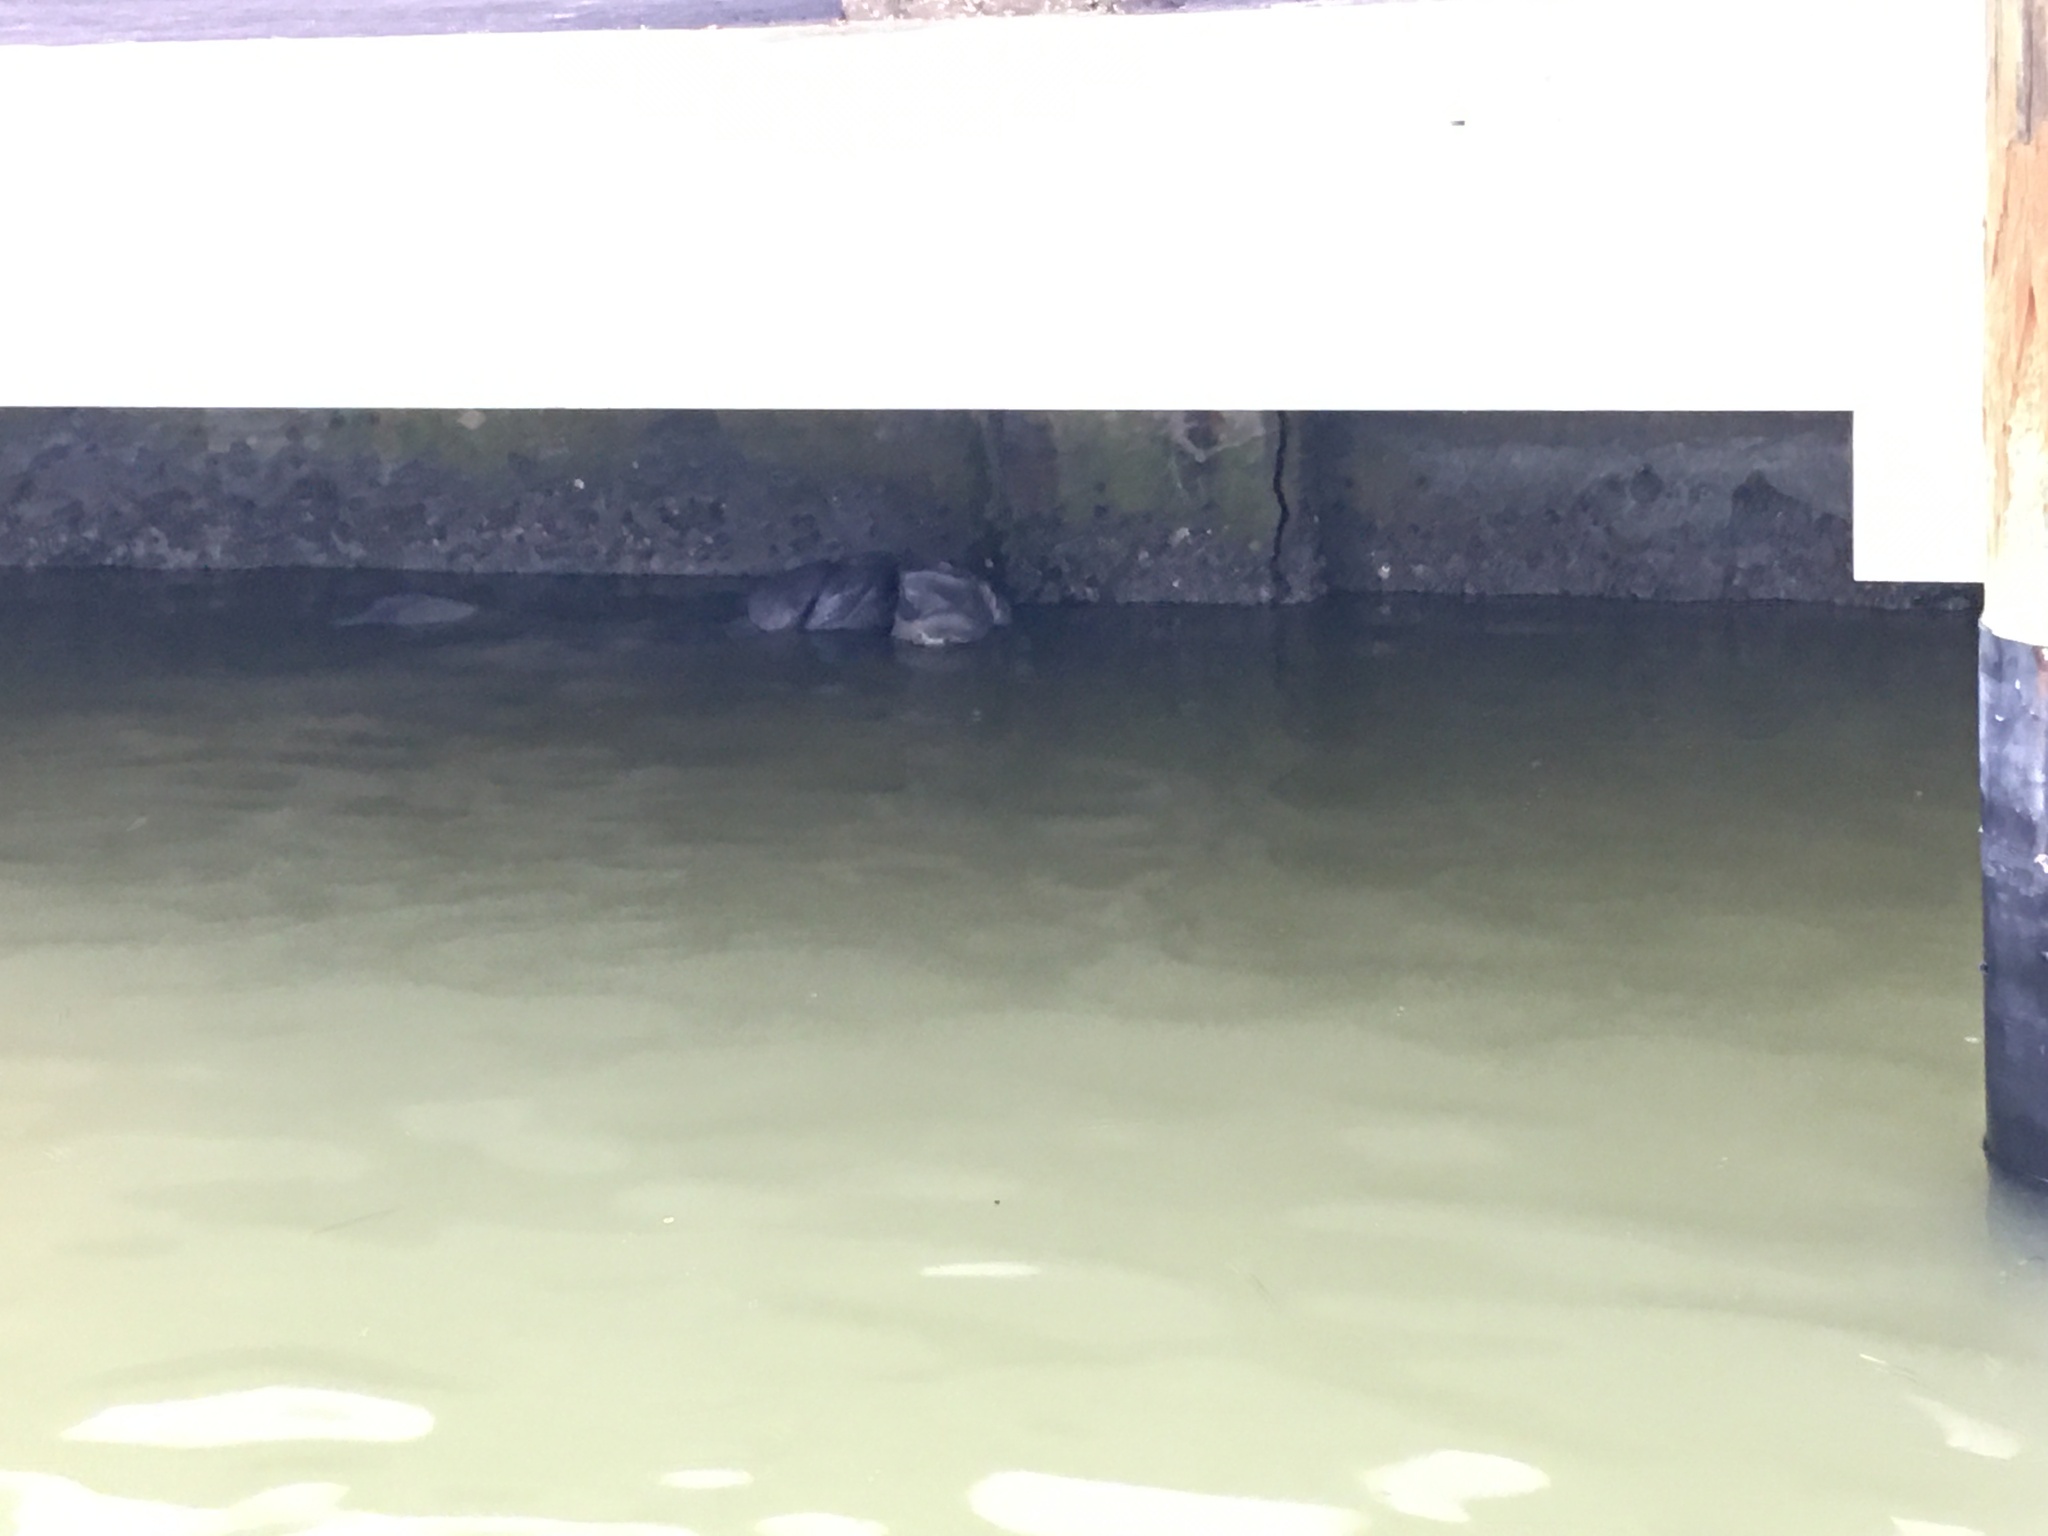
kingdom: Animalia
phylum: Chordata
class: Mammalia
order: Sirenia
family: Trichechidae
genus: Trichechus
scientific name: Trichechus manatus
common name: West indian manatee
